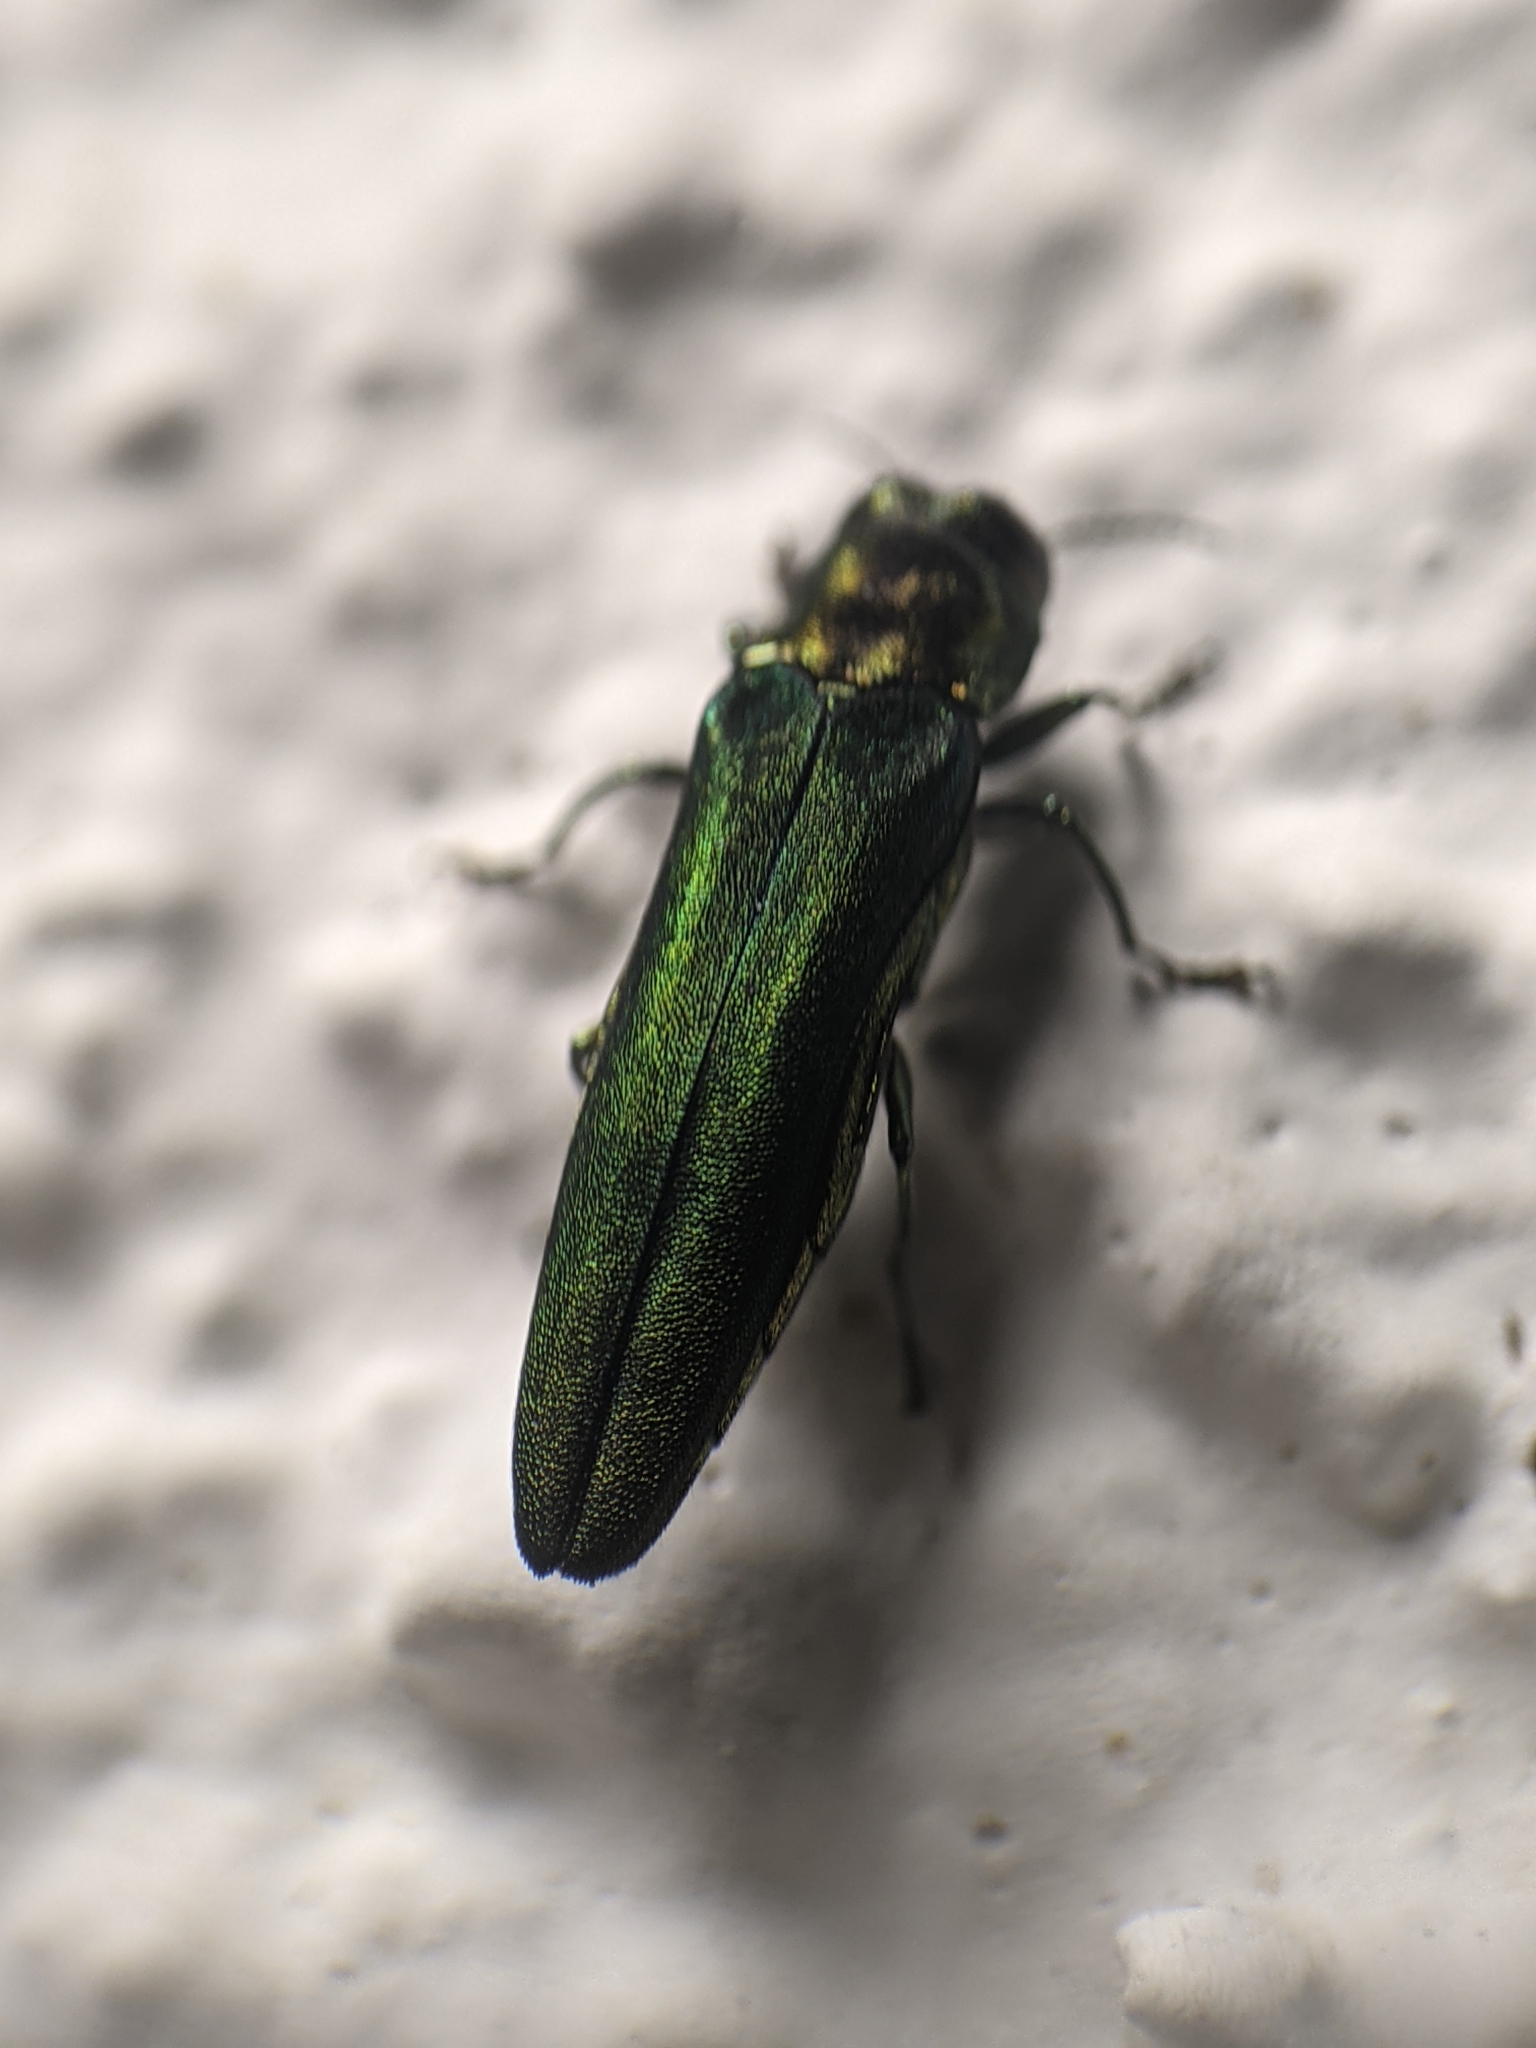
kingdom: Animalia
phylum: Arthropoda
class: Insecta
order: Coleoptera
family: Buprestidae
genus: Agrilus
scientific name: Agrilus planipennis
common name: Emerald ash borer
